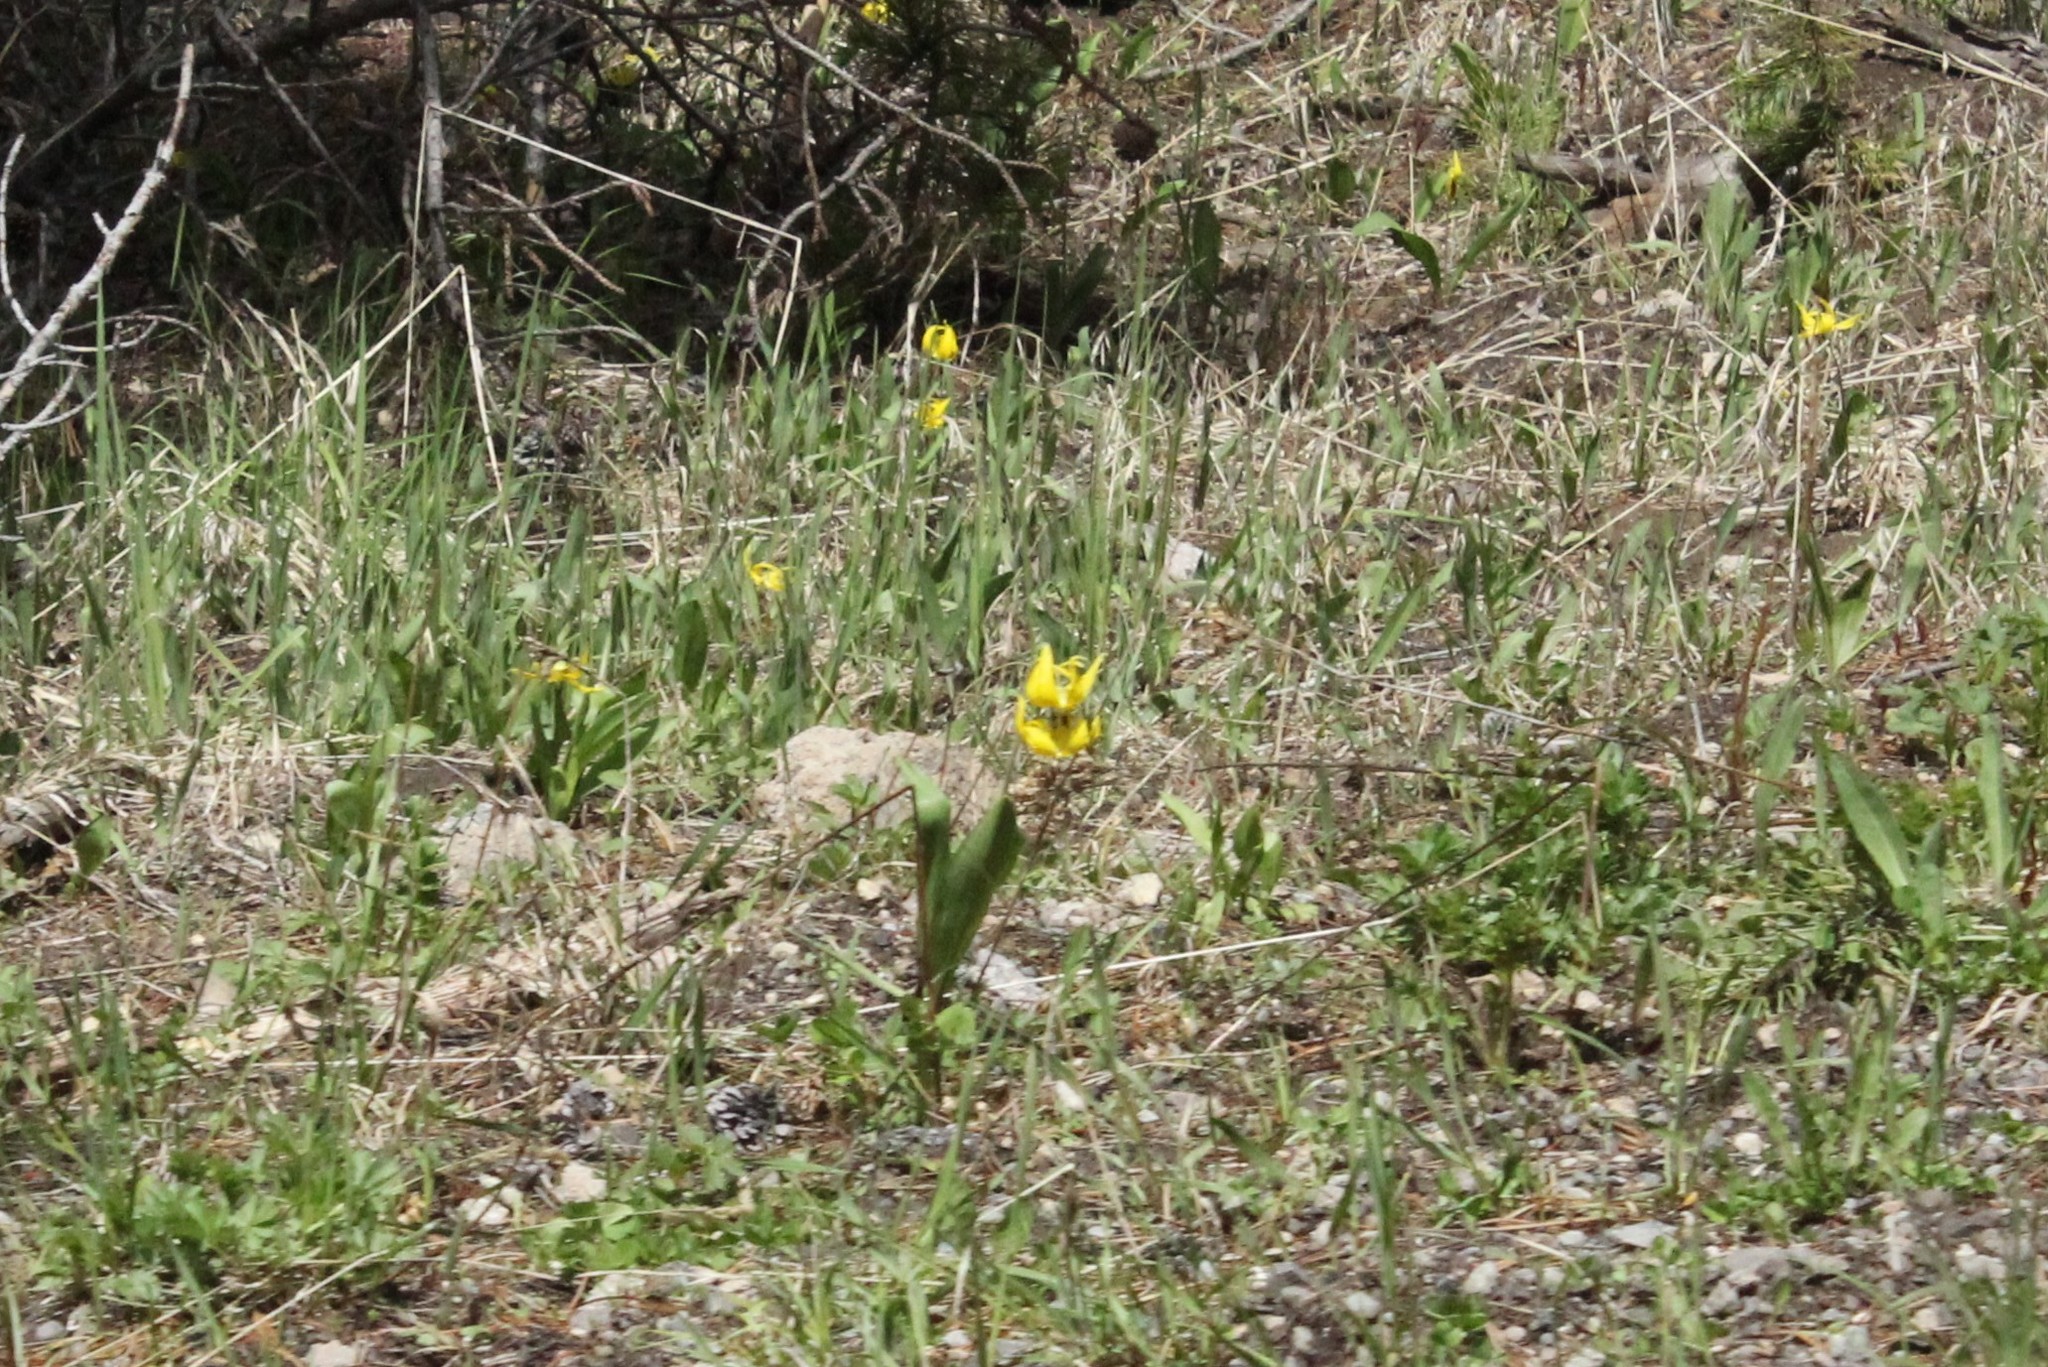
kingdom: Plantae
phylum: Tracheophyta
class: Liliopsida
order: Liliales
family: Liliaceae
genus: Erythronium
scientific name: Erythronium grandiflorum
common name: Avalanche-lily
